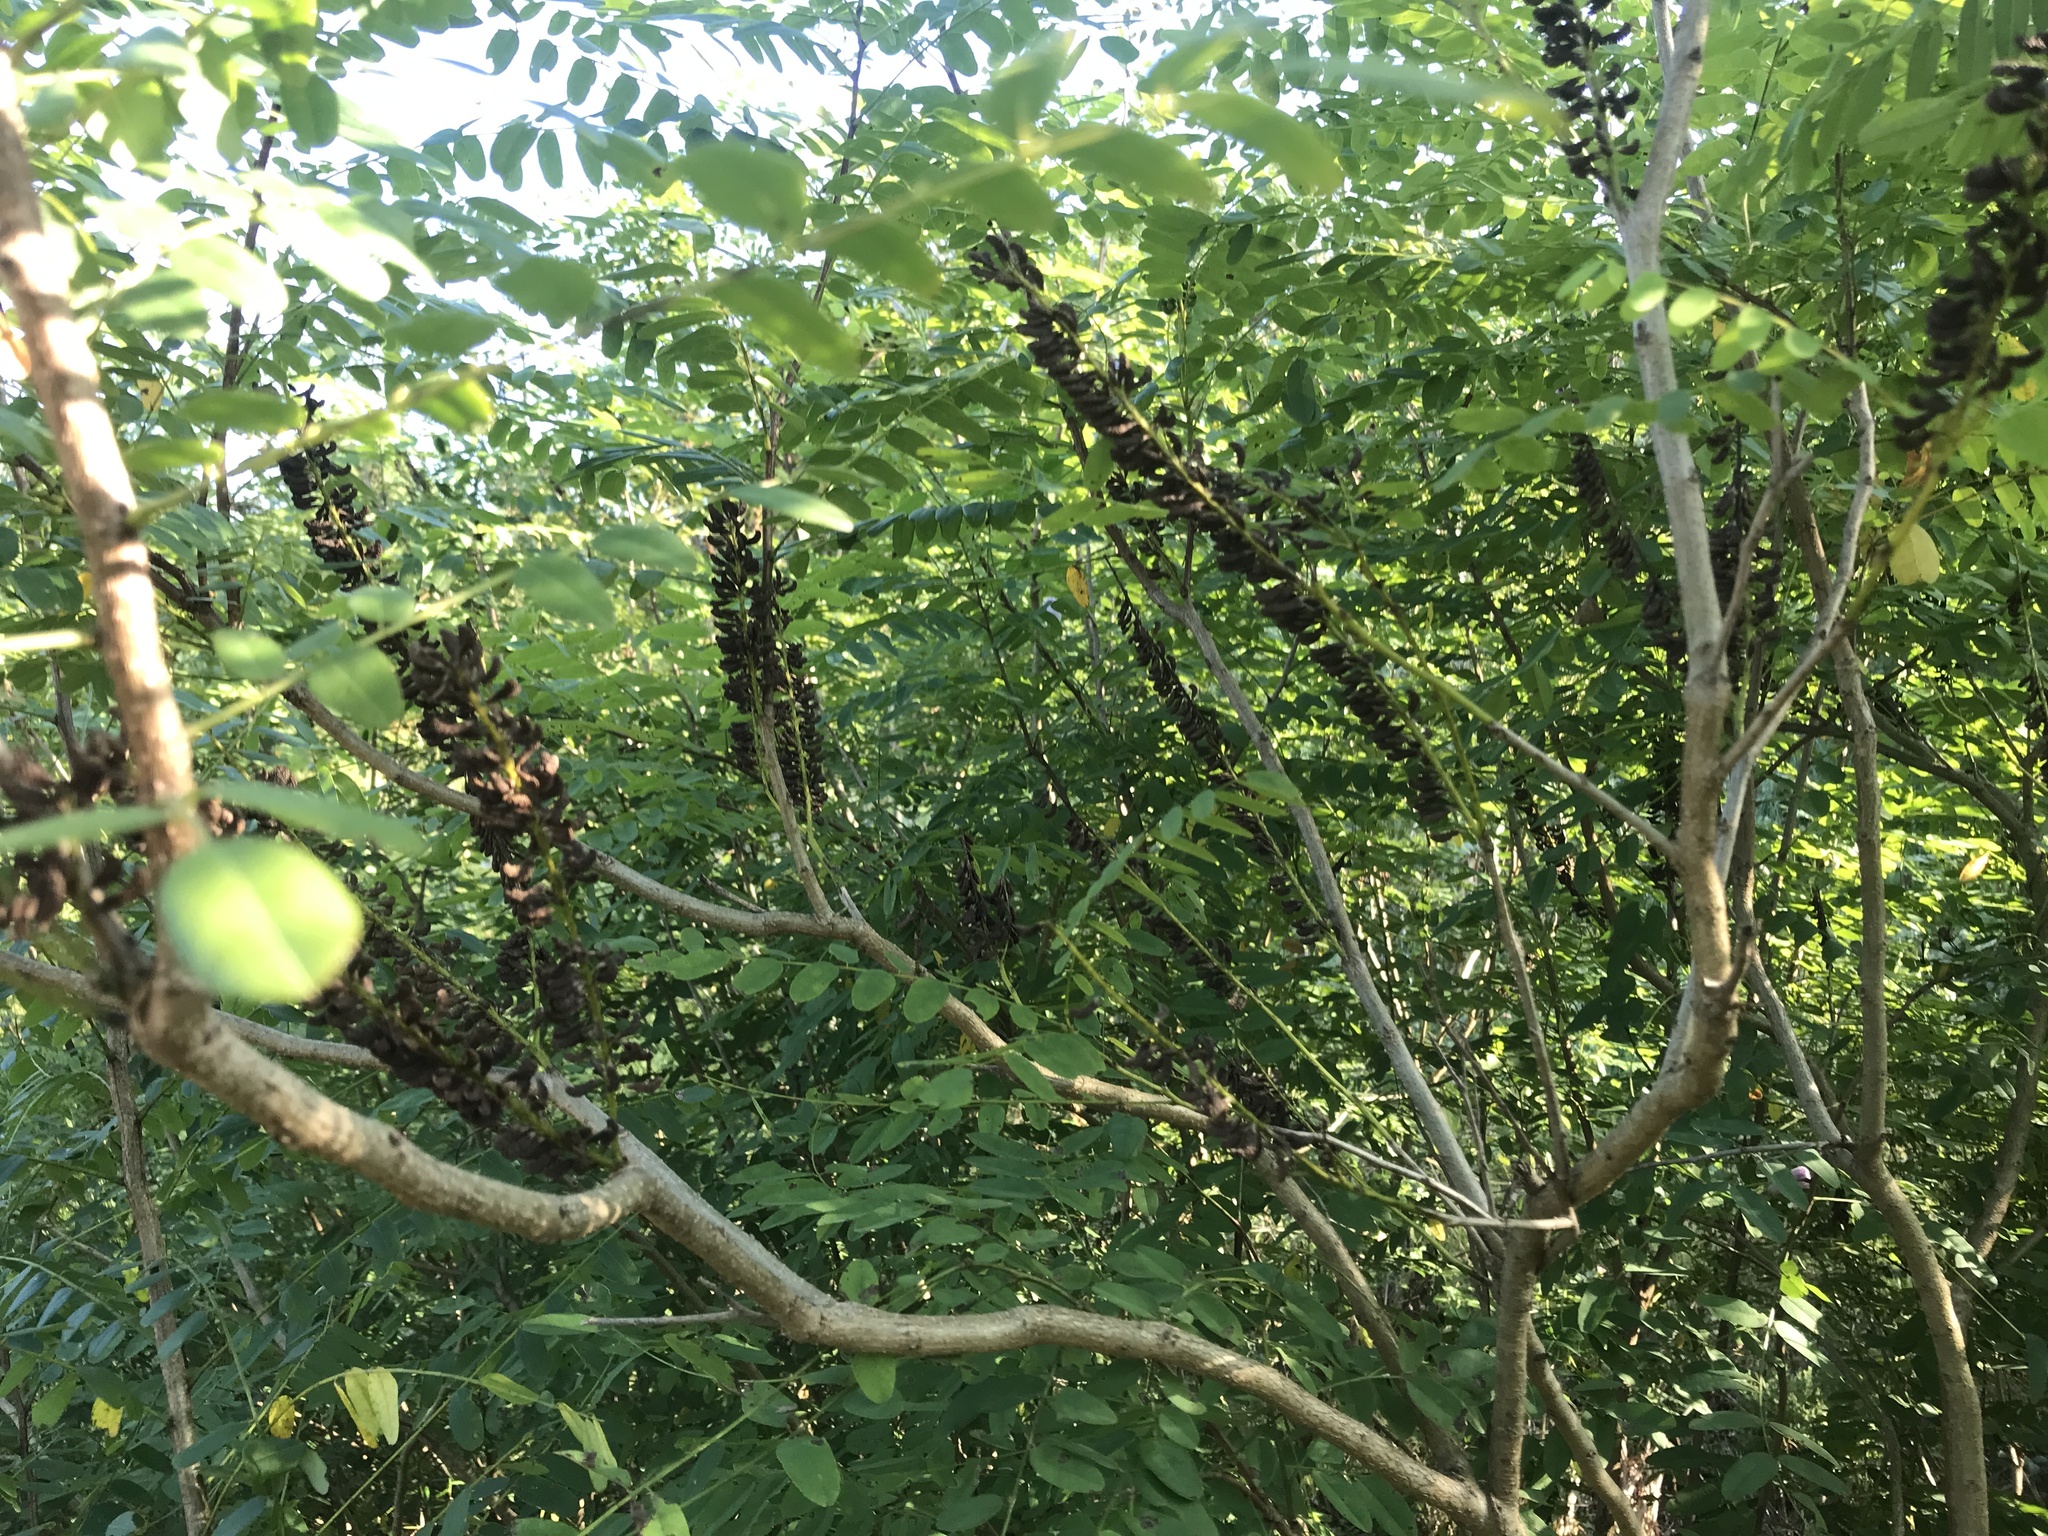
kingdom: Plantae
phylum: Tracheophyta
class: Magnoliopsida
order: Fabales
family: Fabaceae
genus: Amorpha
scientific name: Amorpha fruticosa
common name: False indigo
